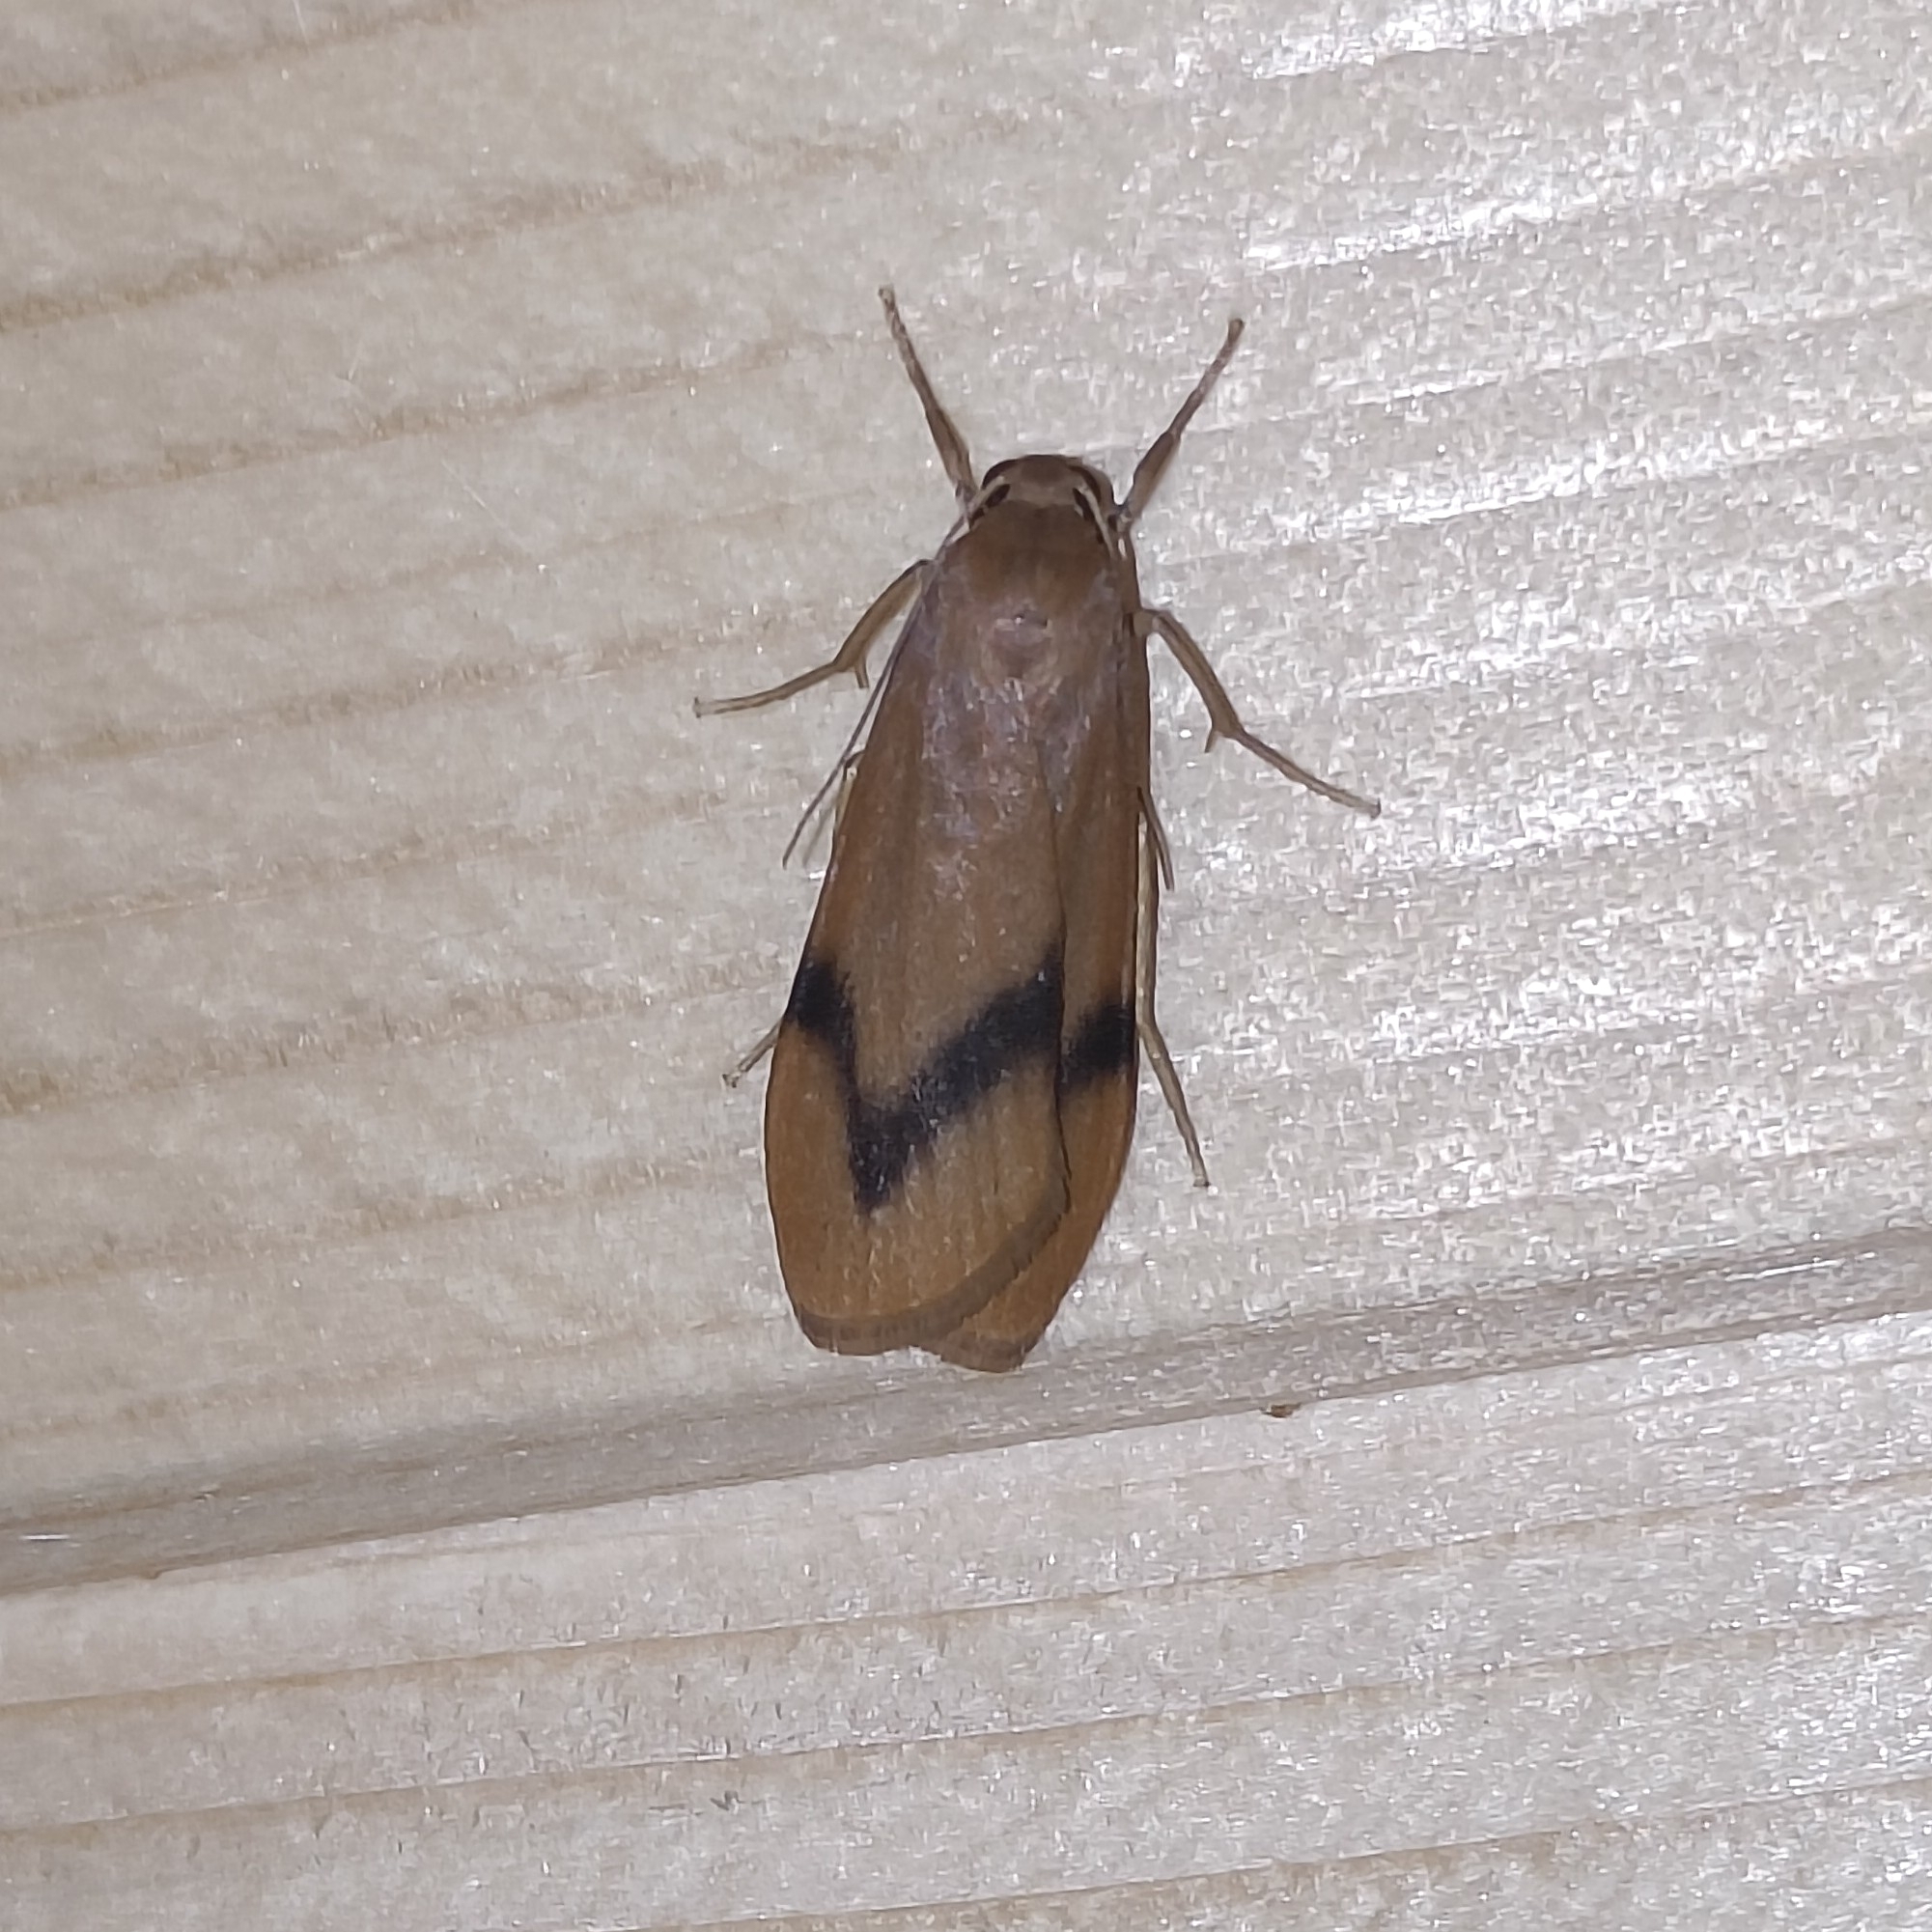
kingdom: Animalia
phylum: Arthropoda
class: Insecta
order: Lepidoptera
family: Erebidae
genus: Dolgoma
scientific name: Dolgoma angulifera
